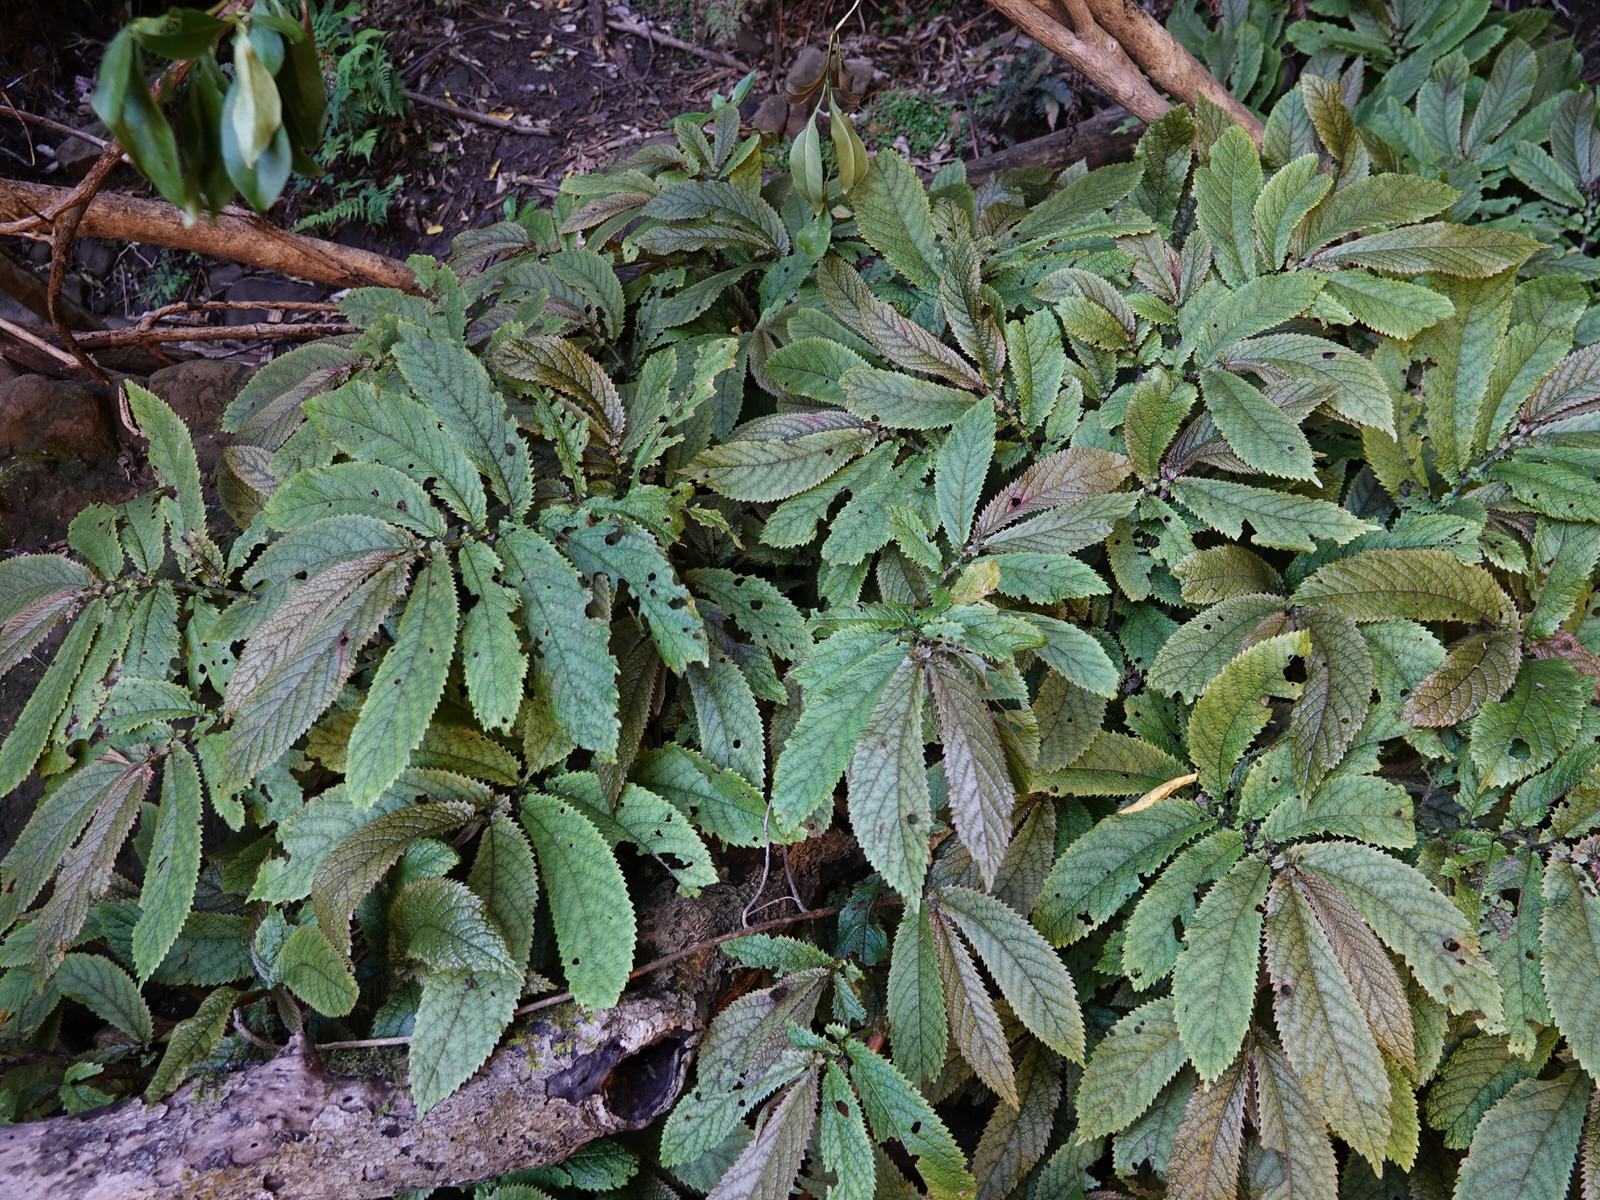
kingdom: Plantae
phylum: Tracheophyta
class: Magnoliopsida
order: Rosales
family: Urticaceae
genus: Elatostema
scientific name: Elatostema rugosum
